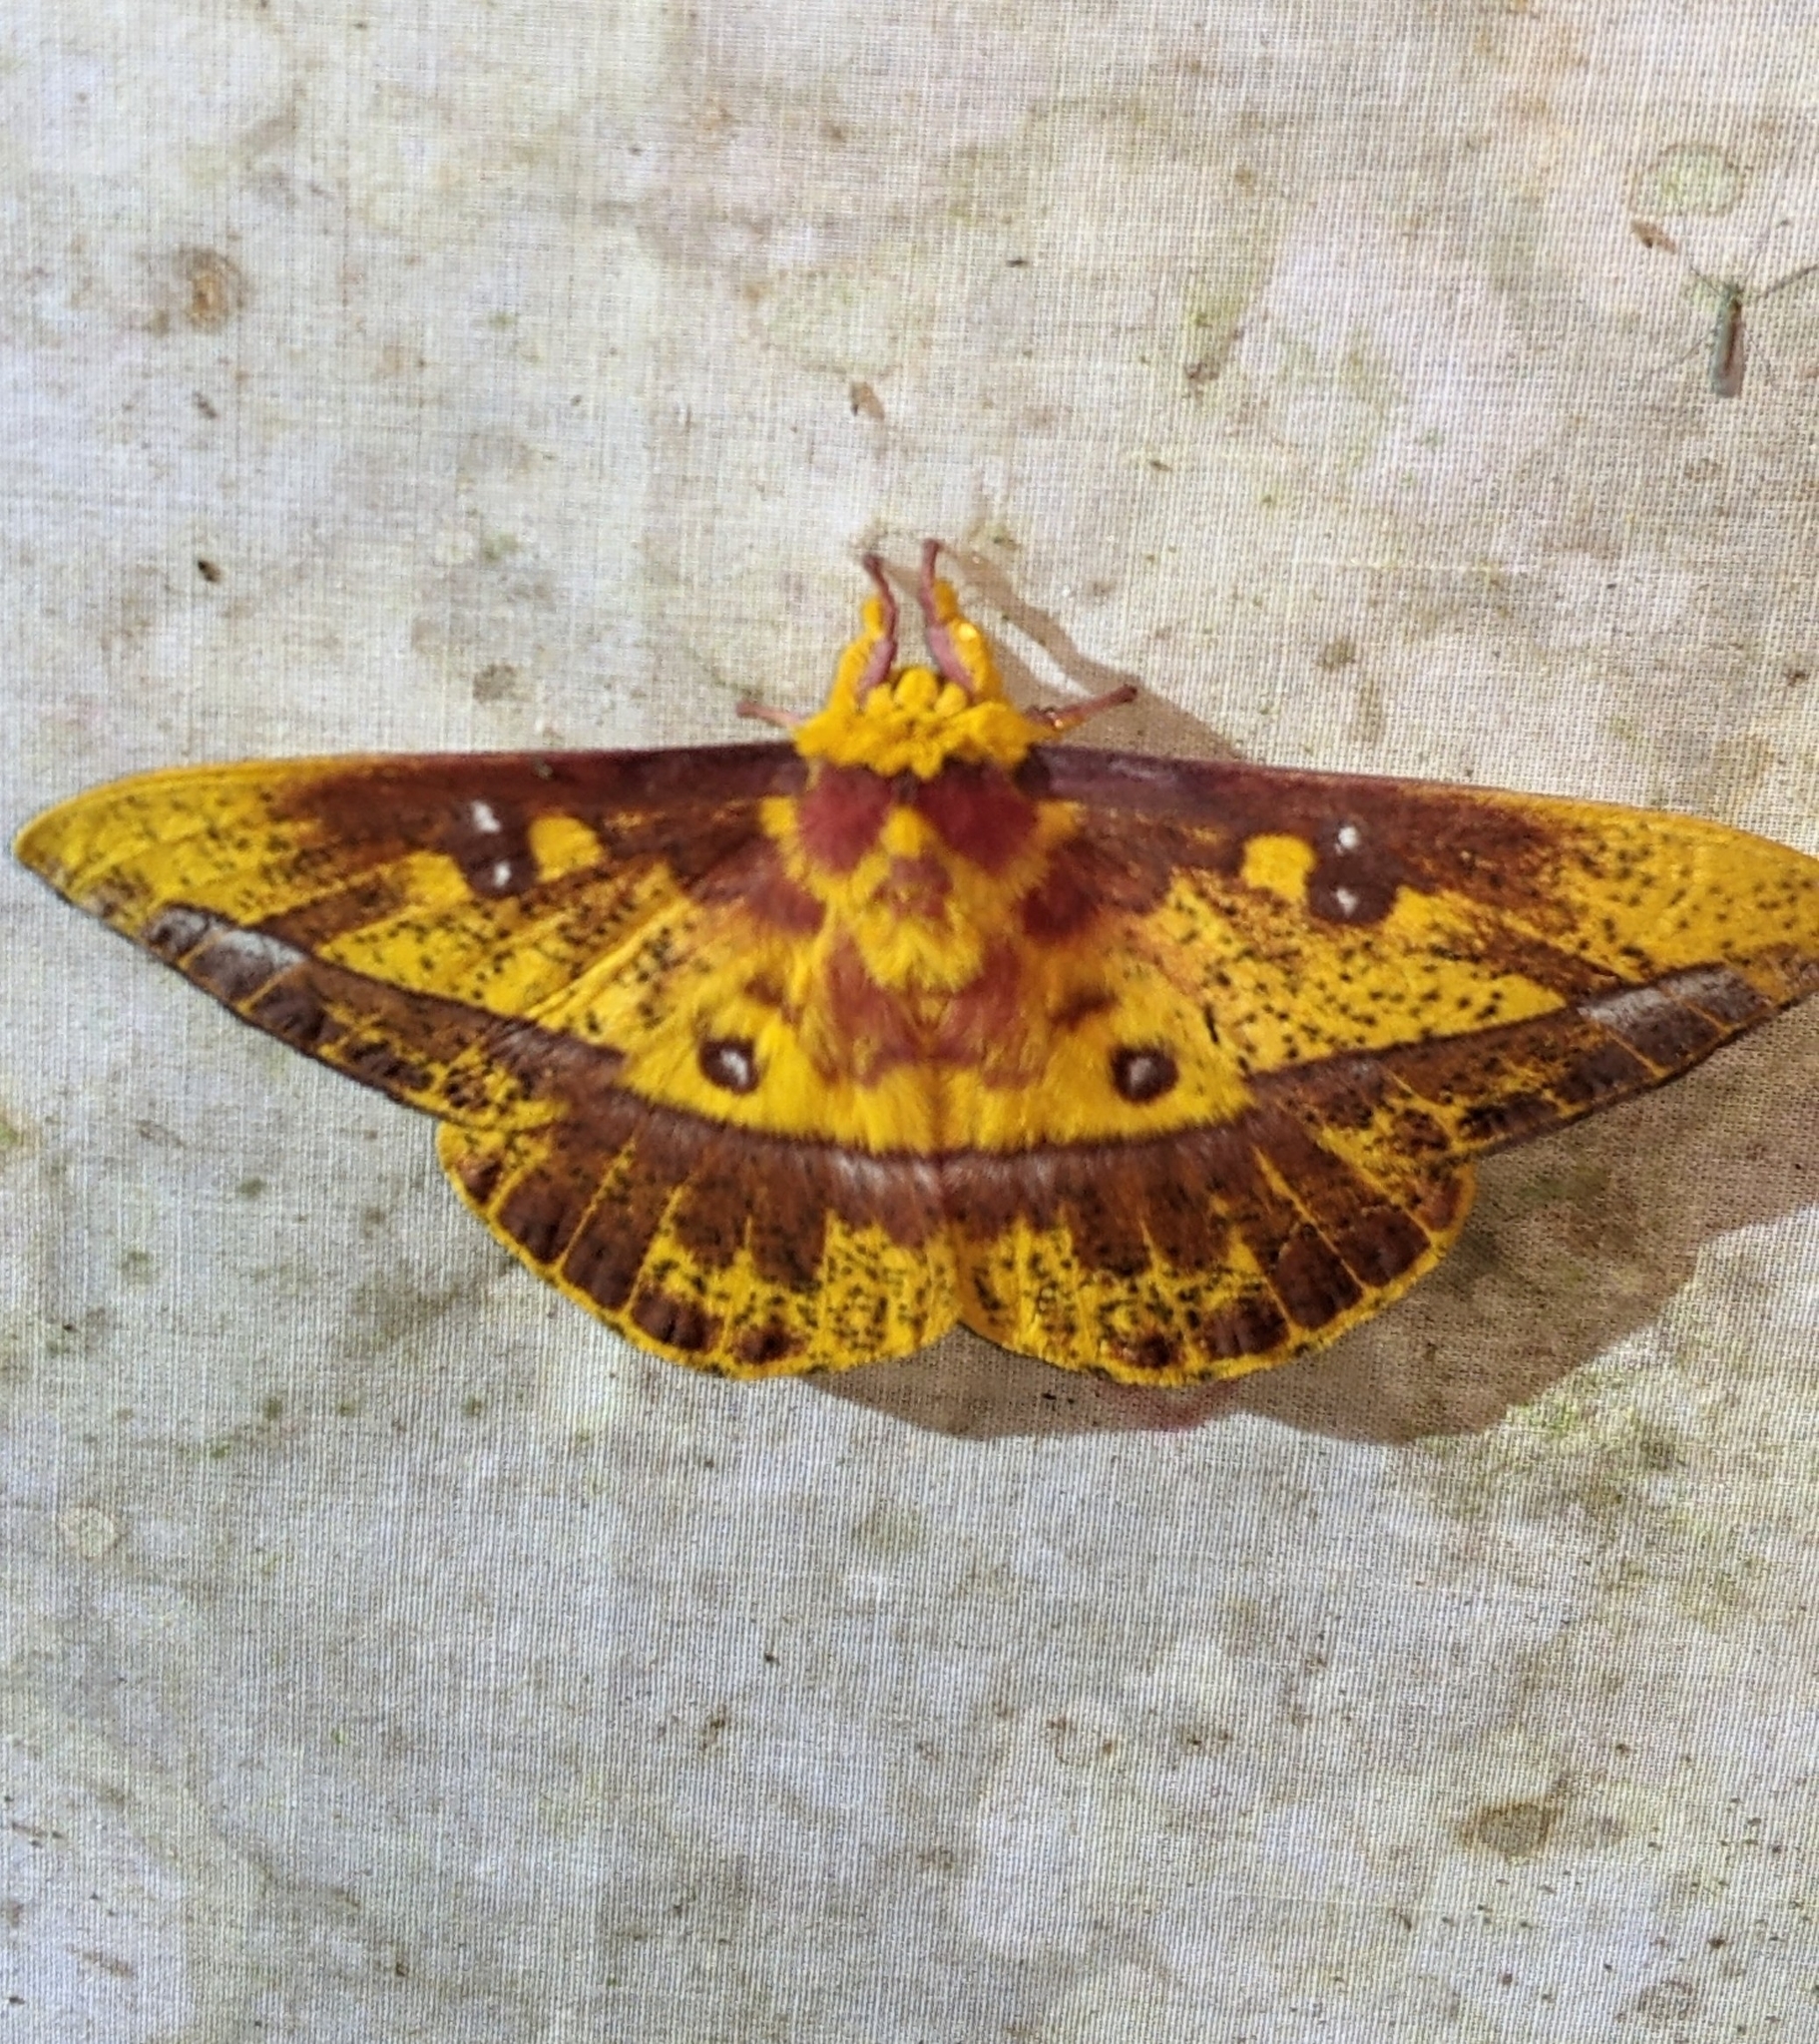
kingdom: Animalia
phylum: Arthropoda
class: Insecta
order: Lepidoptera
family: Saturniidae
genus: Bathyphlebia
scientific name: Bathyphlebia eminens
